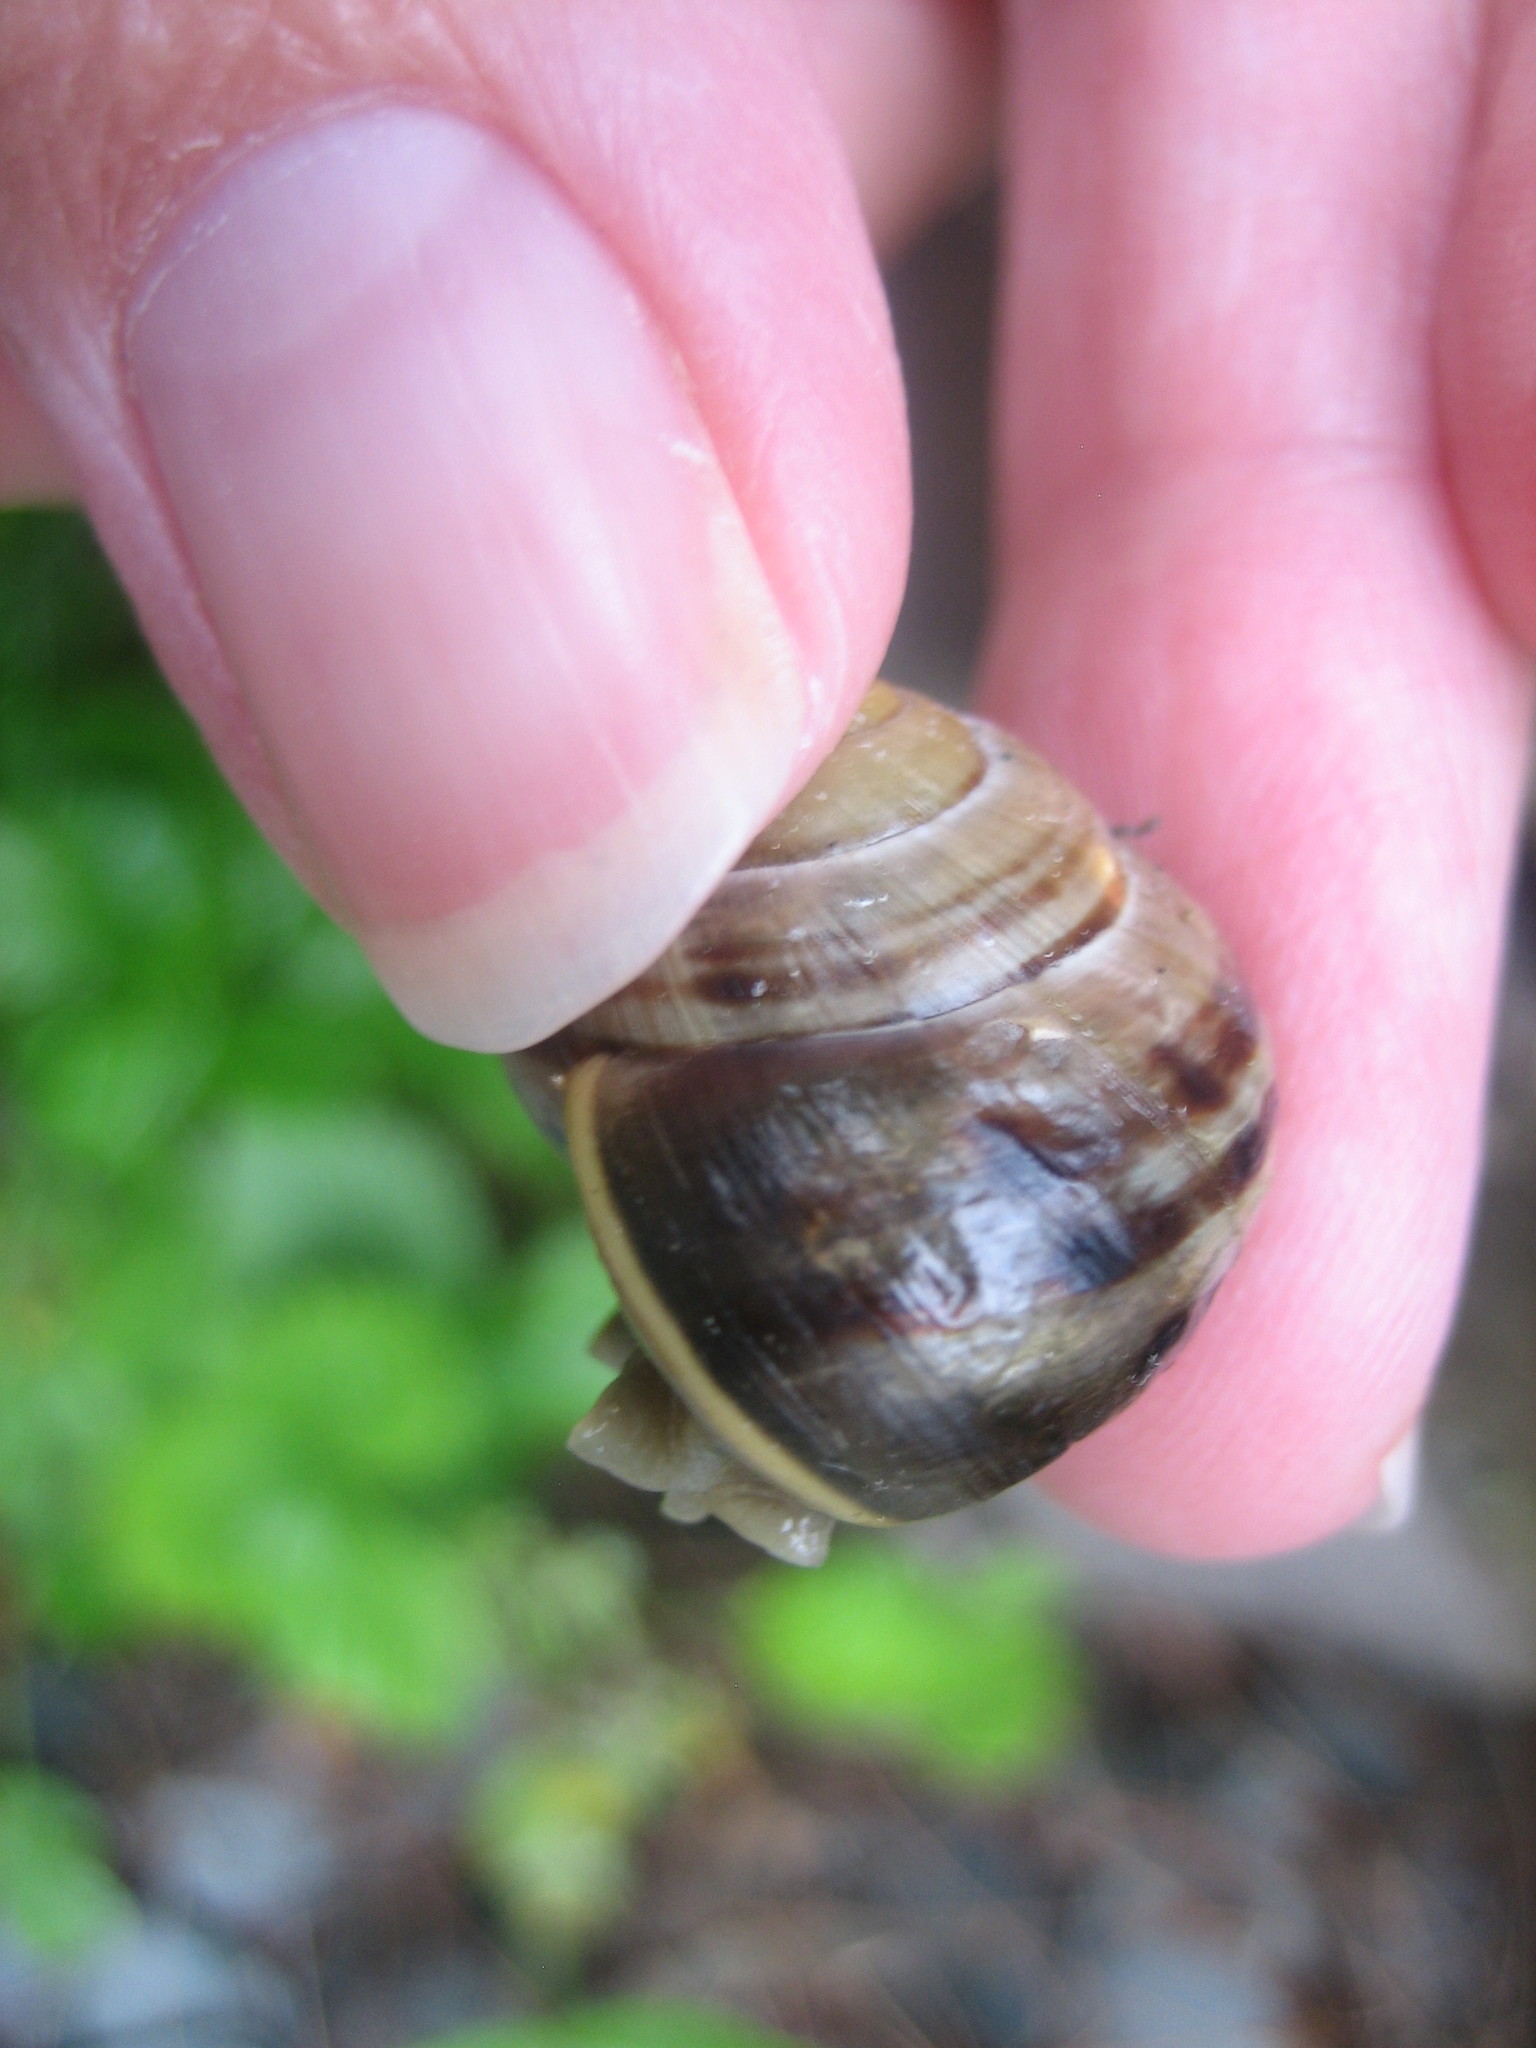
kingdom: Animalia
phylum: Mollusca
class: Gastropoda
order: Stylommatophora
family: Helicidae
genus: Cepaea
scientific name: Cepaea
